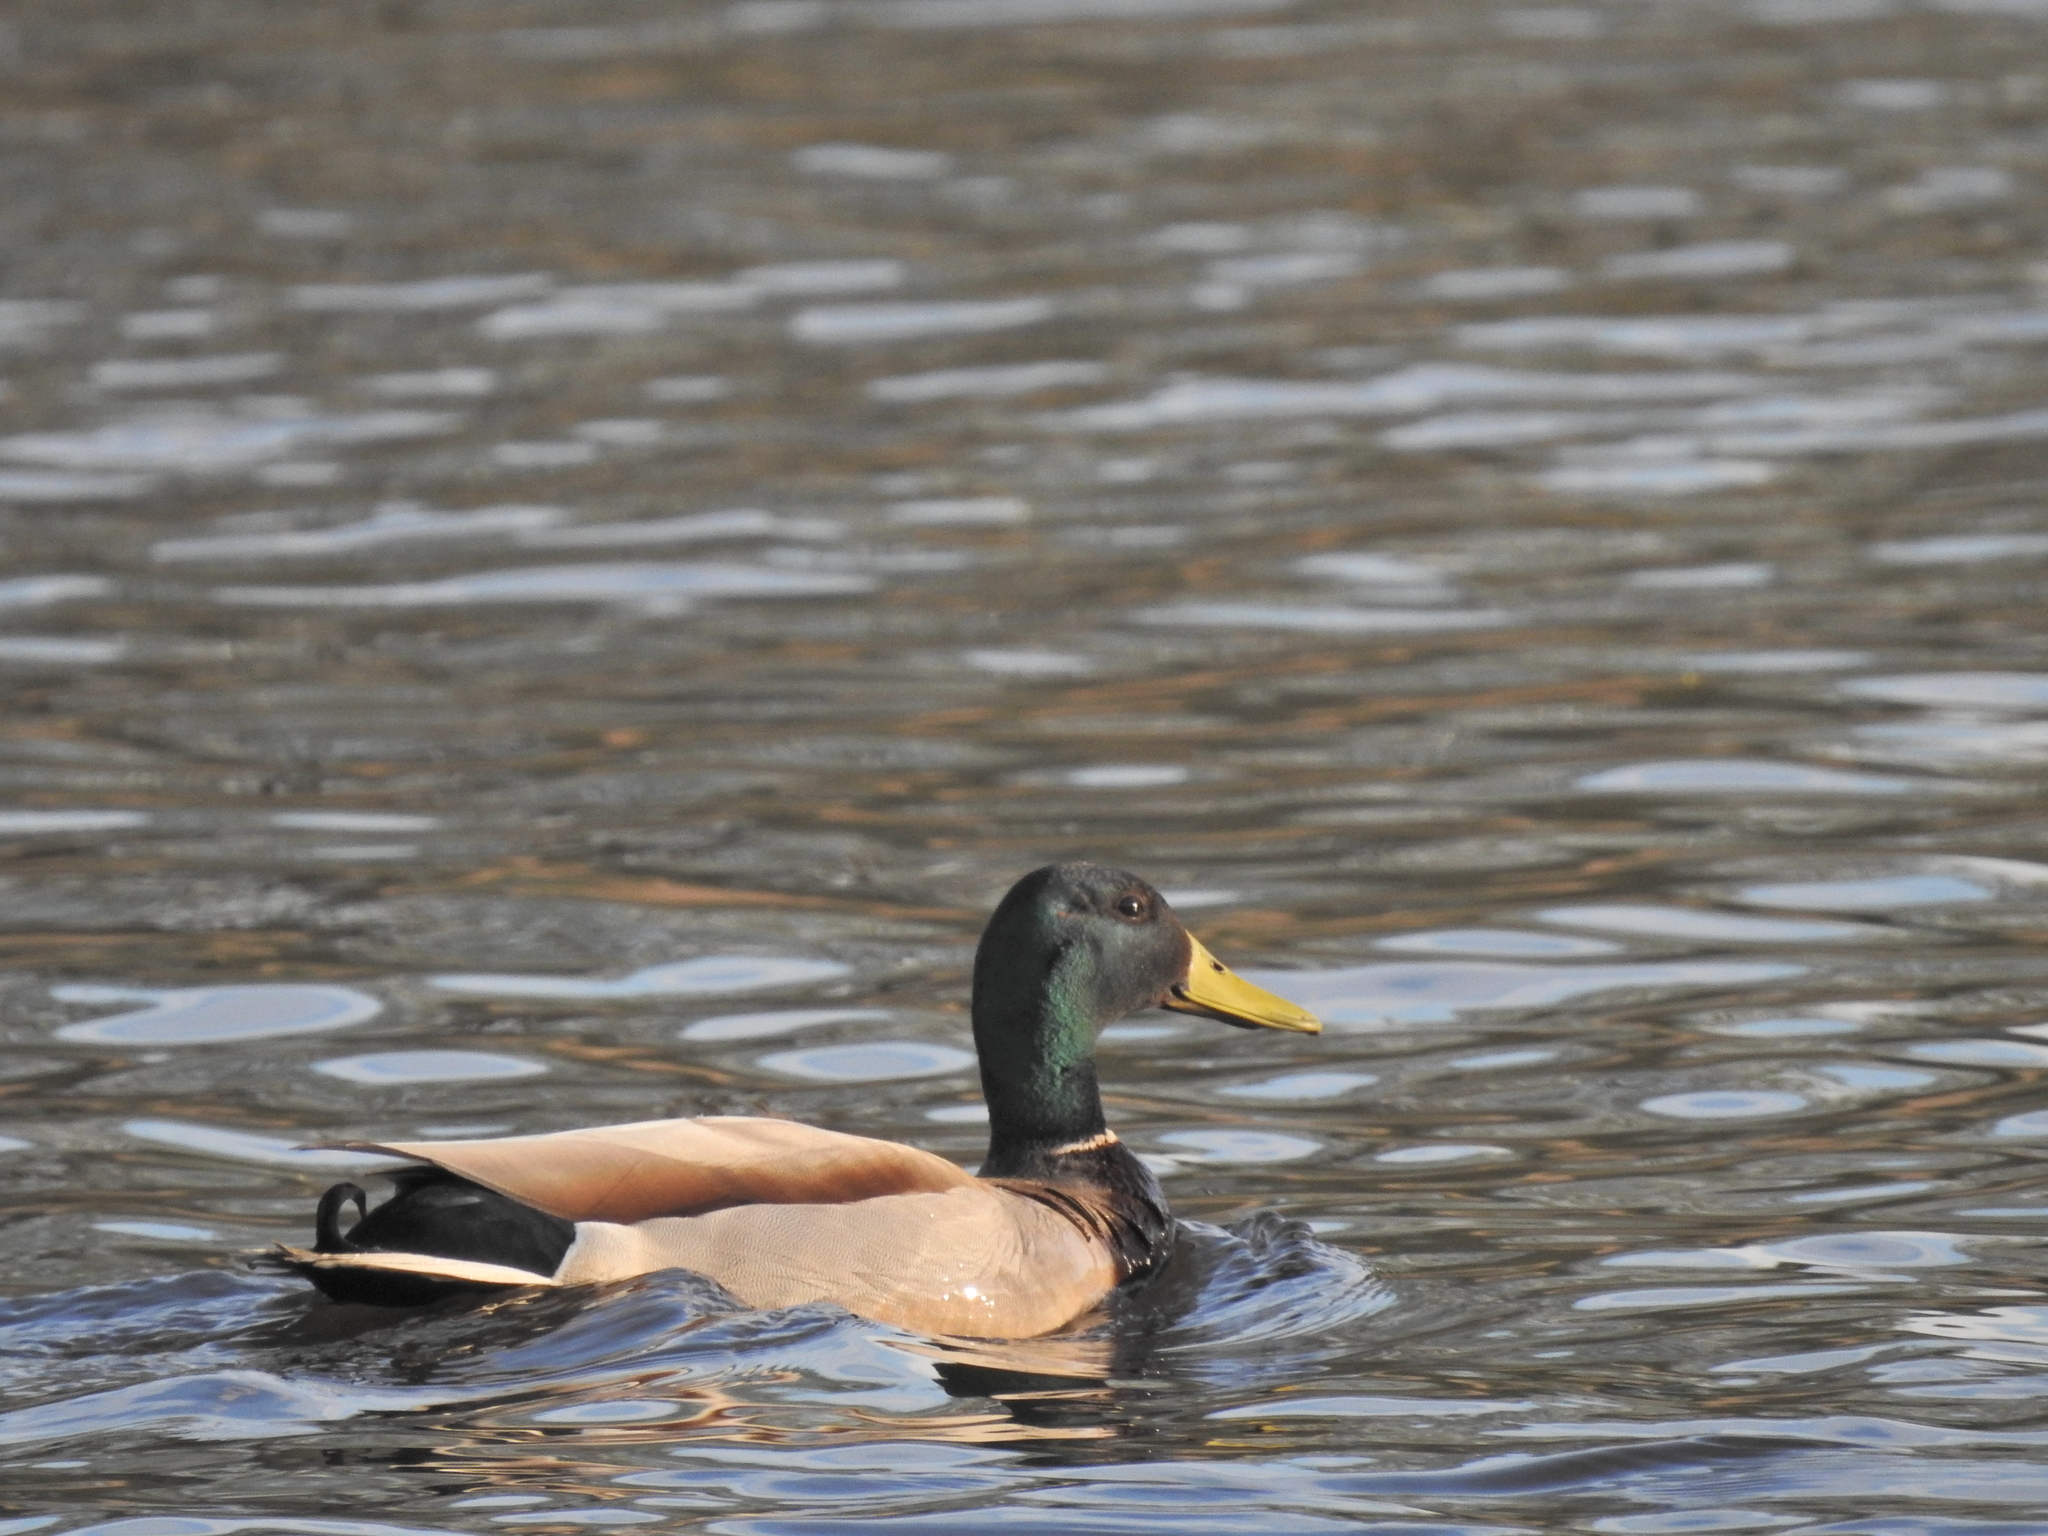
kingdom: Animalia
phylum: Chordata
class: Aves
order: Anseriformes
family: Anatidae
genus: Anas
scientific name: Anas platyrhynchos
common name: Mallard
